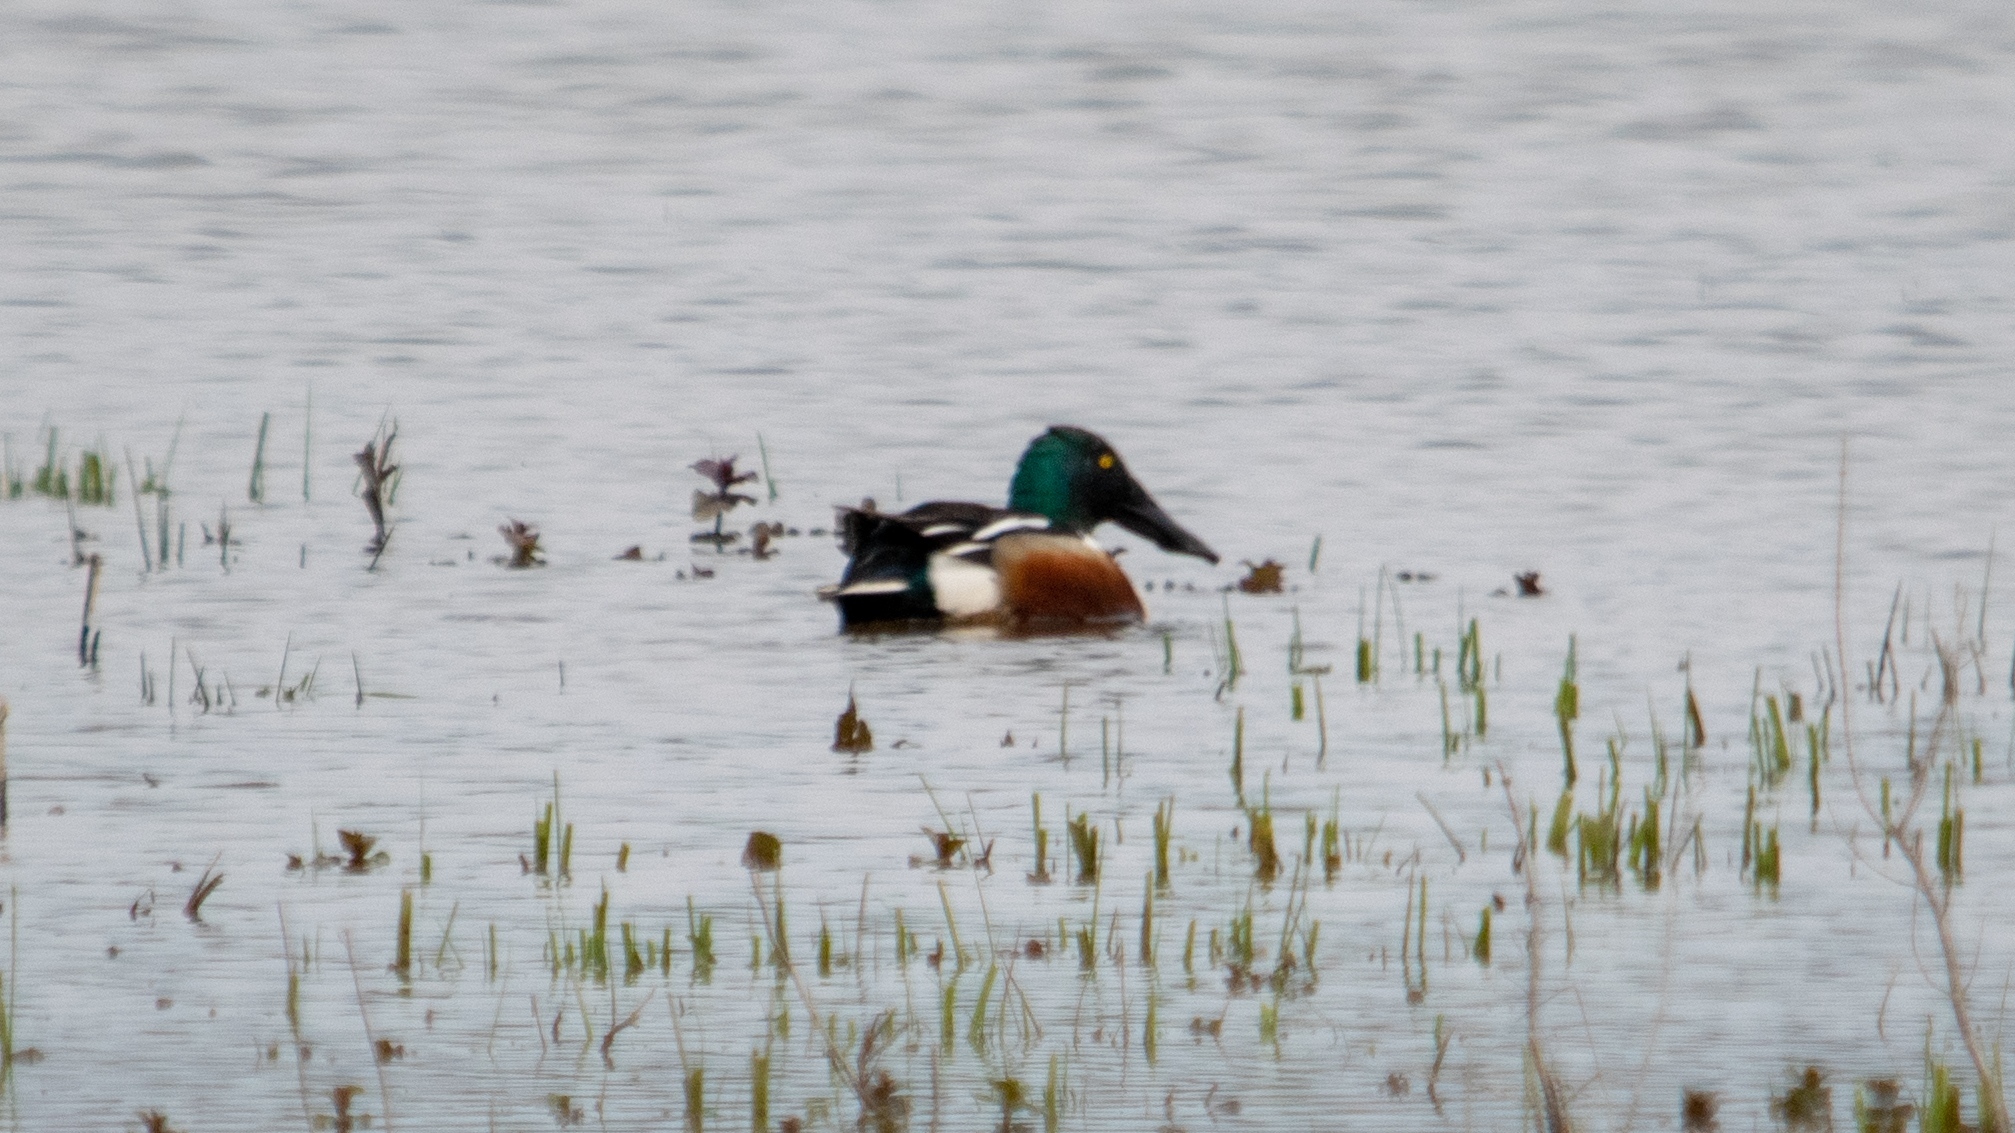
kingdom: Animalia
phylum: Chordata
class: Aves
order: Anseriformes
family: Anatidae
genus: Spatula
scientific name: Spatula clypeata
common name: Northern shoveler
